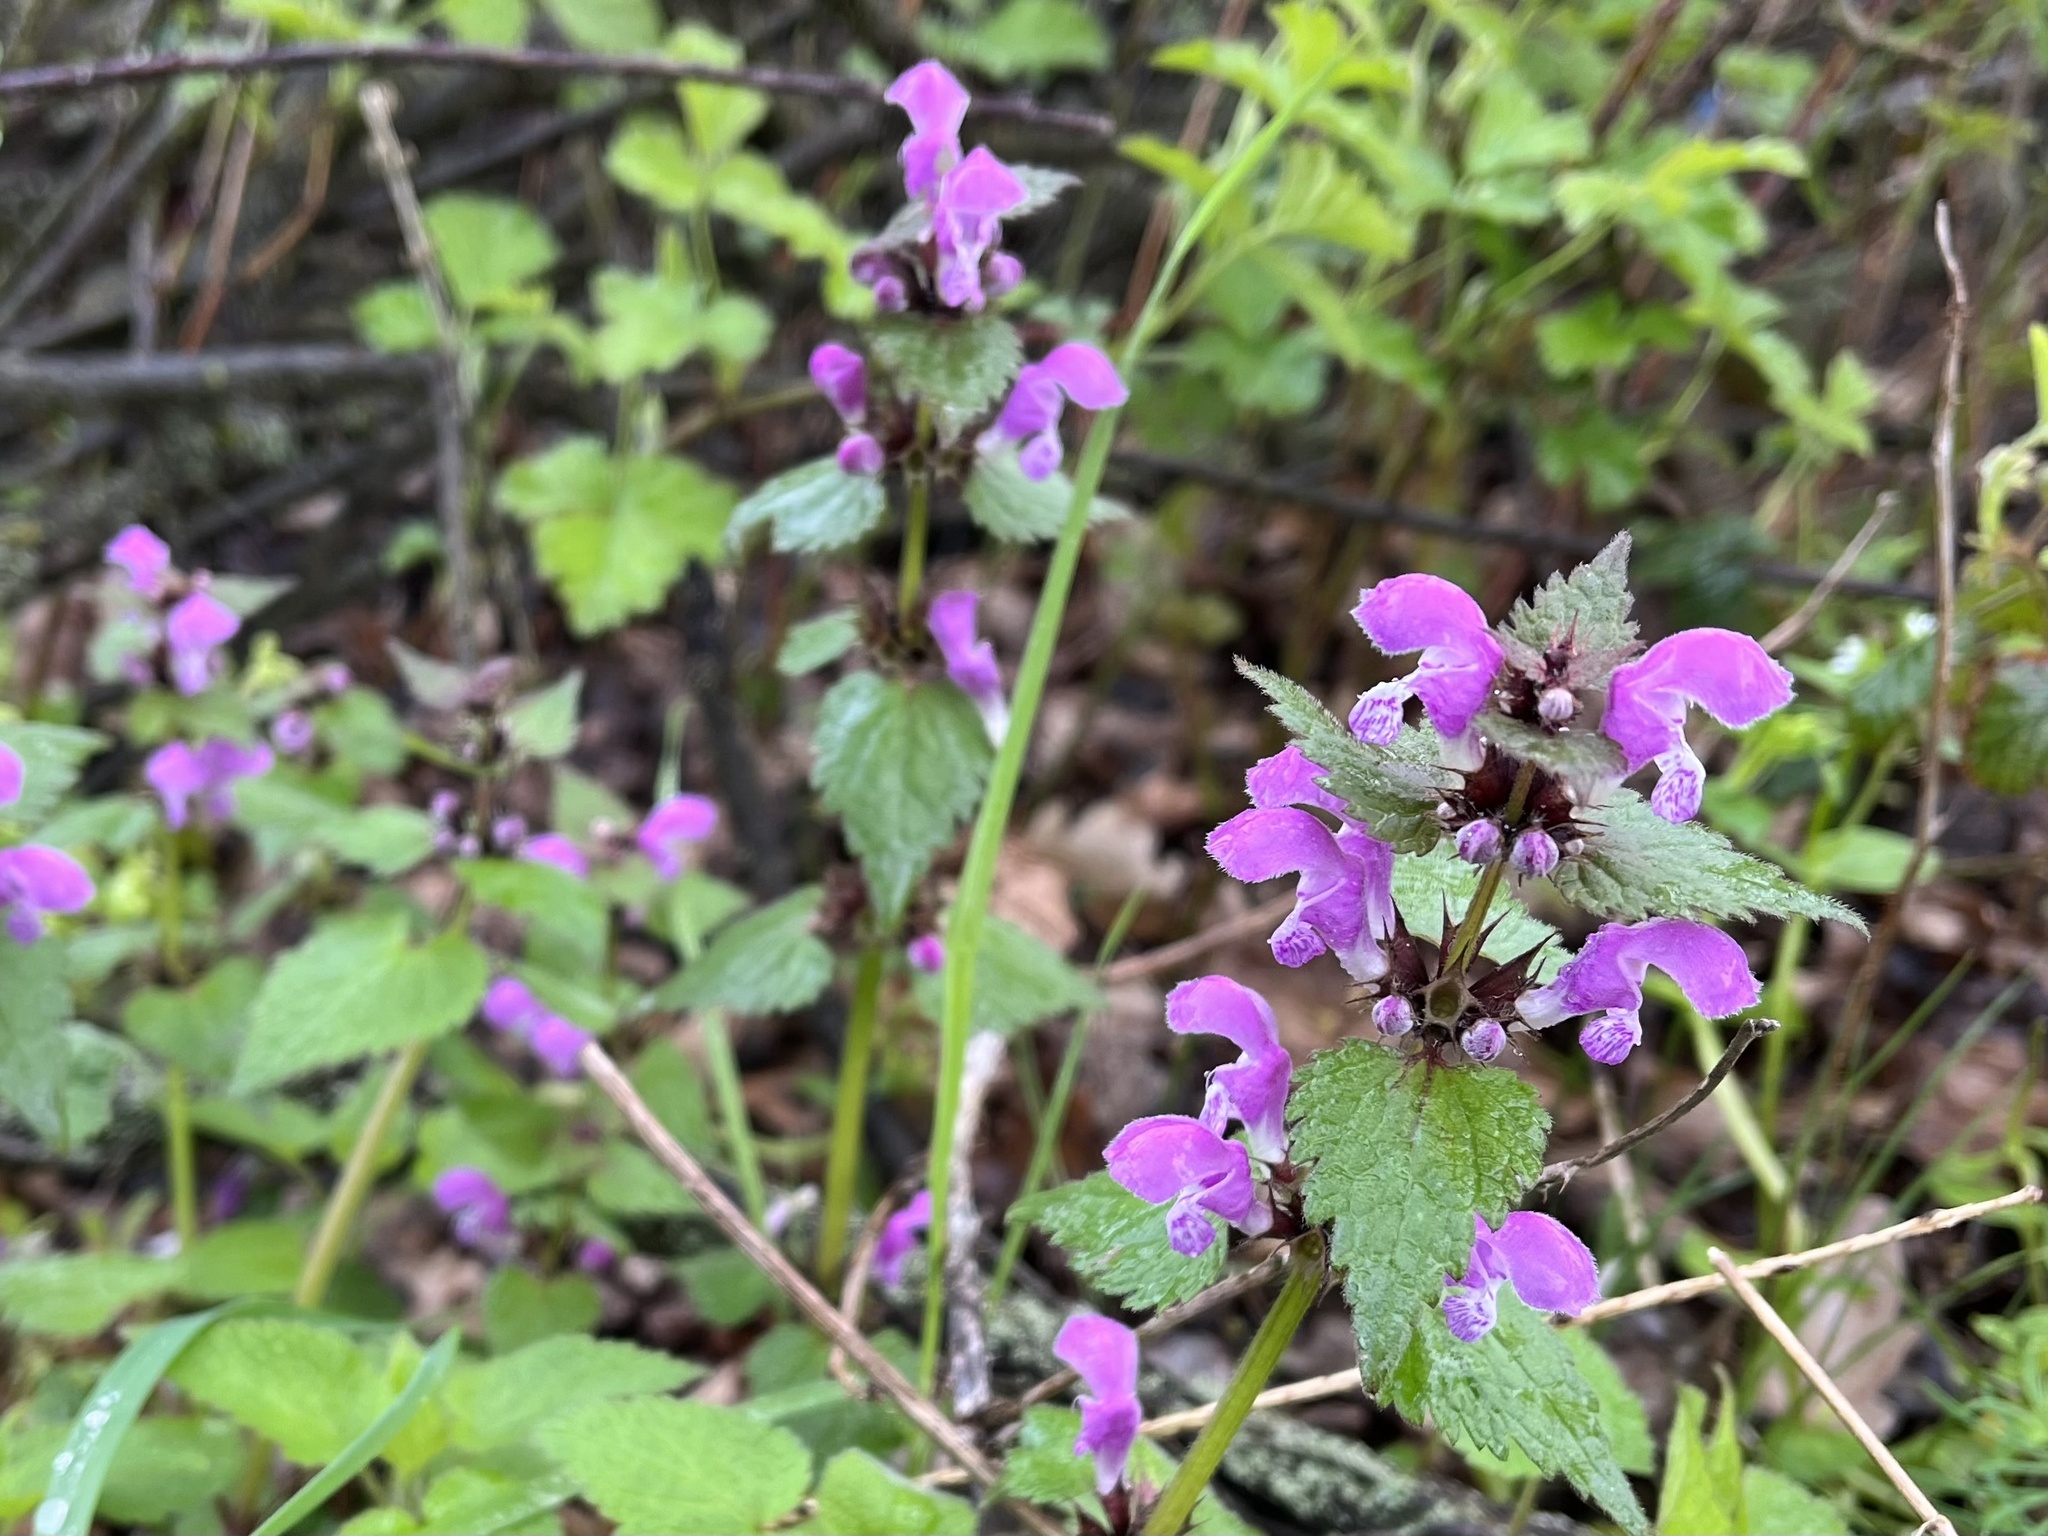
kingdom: Plantae
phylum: Tracheophyta
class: Magnoliopsida
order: Lamiales
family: Lamiaceae
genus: Lamium
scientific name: Lamium maculatum
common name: Spotted dead-nettle
